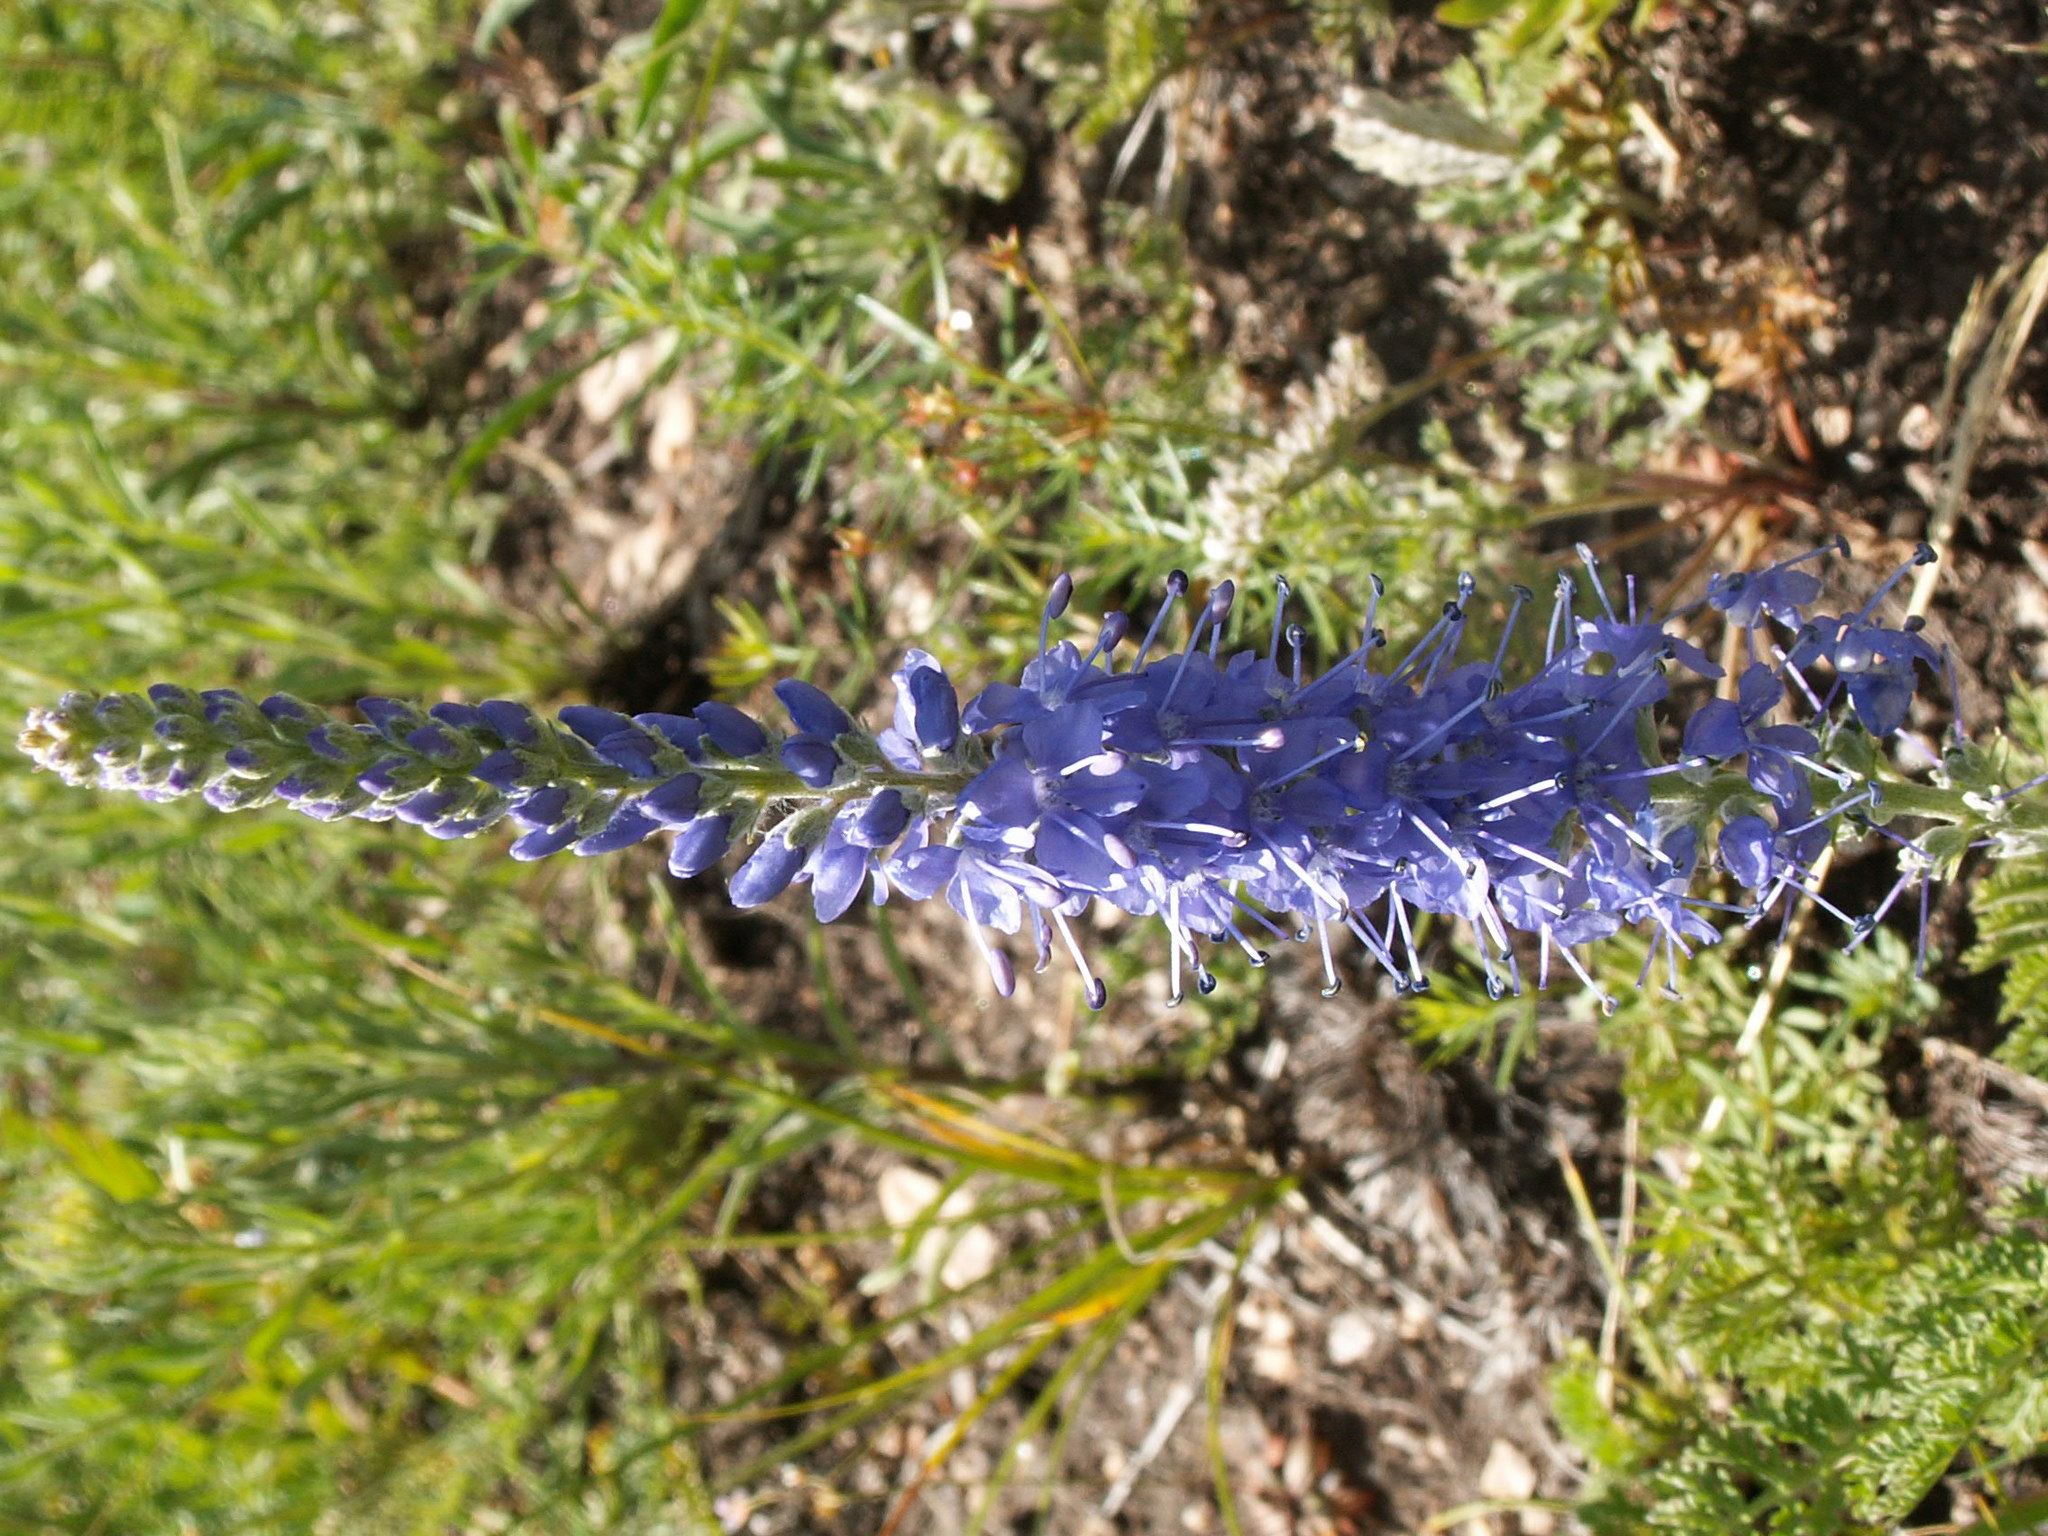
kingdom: Plantae
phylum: Tracheophyta
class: Magnoliopsida
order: Lamiales
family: Plantaginaceae
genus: Veronica
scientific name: Veronica longifolia
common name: Garden speedwell
